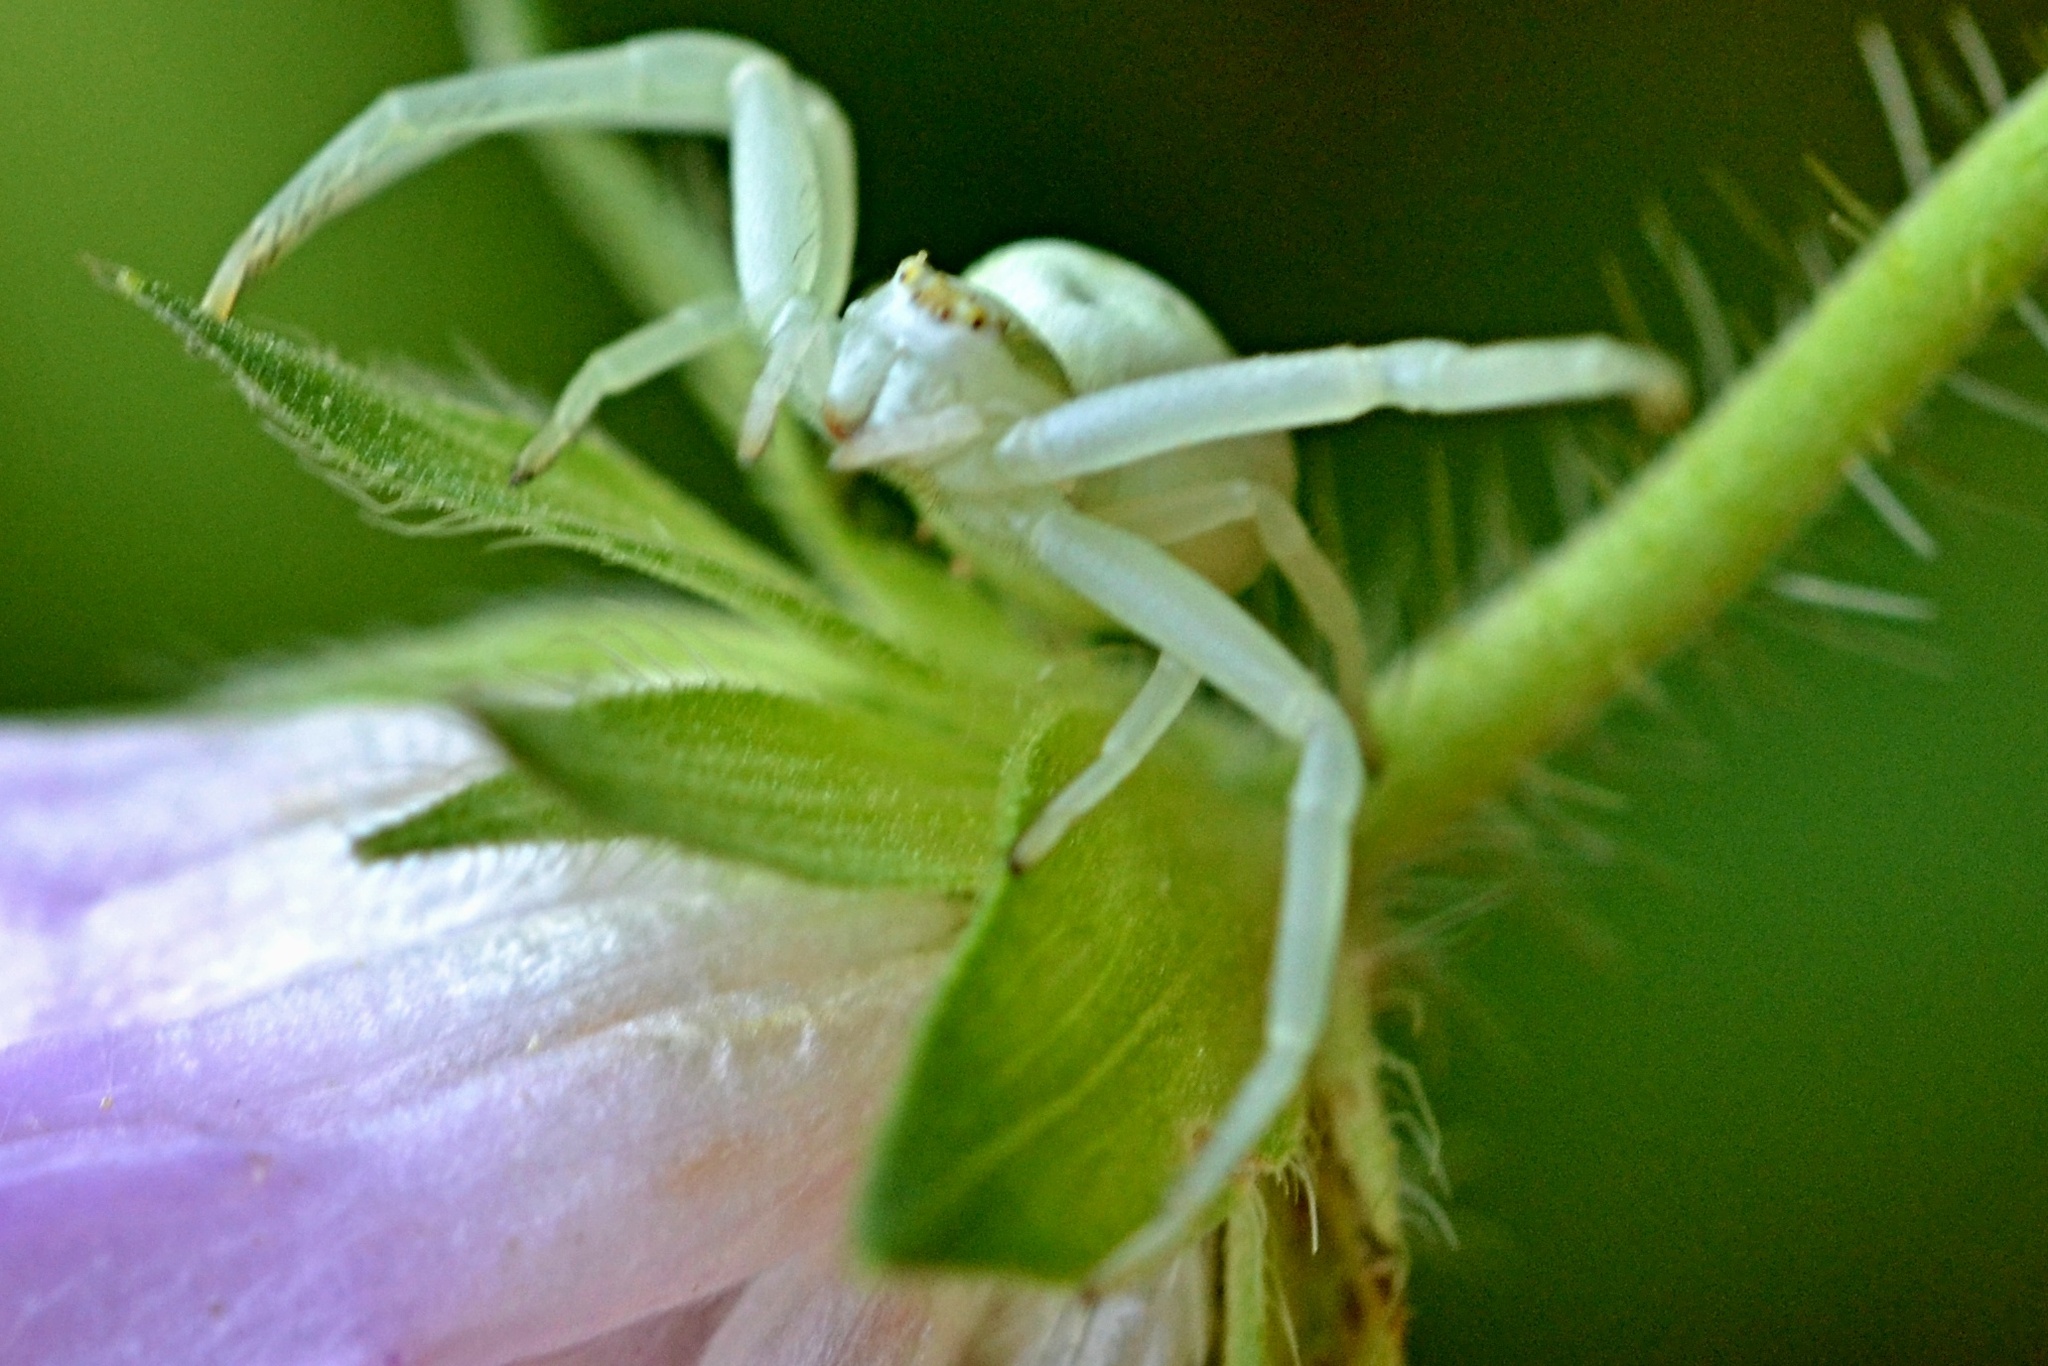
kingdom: Animalia
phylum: Arthropoda
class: Arachnida
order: Araneae
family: Thomisidae
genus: Misumena
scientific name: Misumena vatia
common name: Goldenrod crab spider
